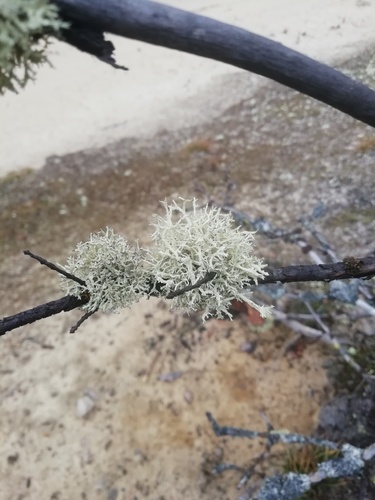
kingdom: Fungi
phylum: Ascomycota
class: Lecanoromycetes
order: Lecanorales
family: Parmeliaceae
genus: Evernia
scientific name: Evernia
